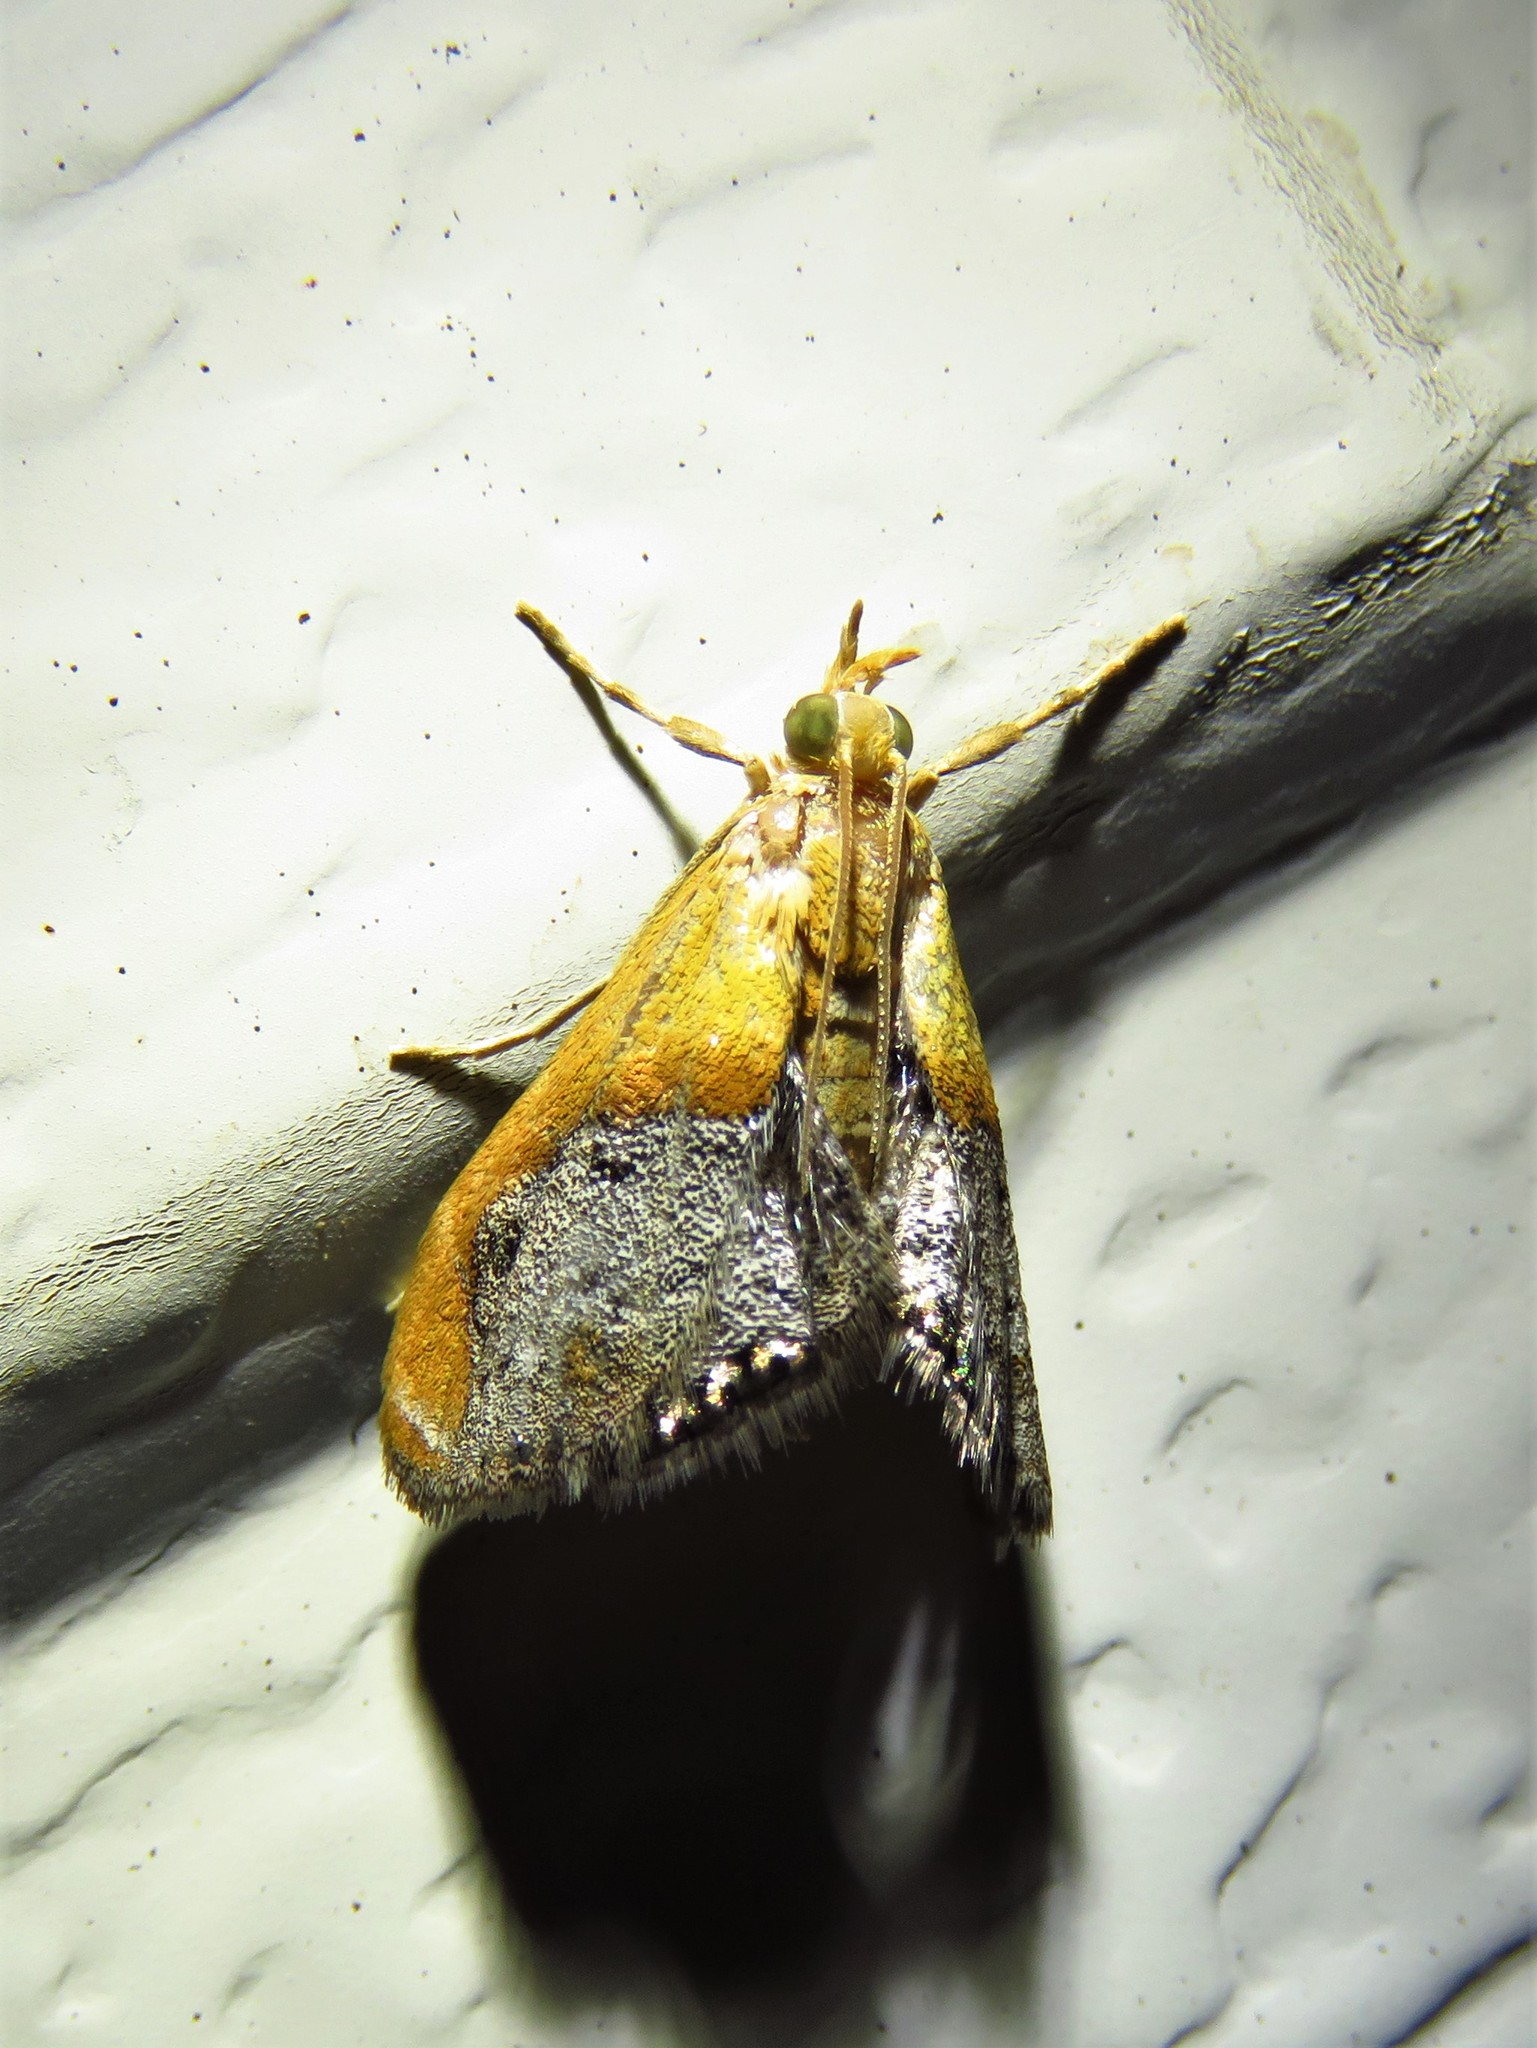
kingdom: Animalia
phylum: Arthropoda
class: Insecta
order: Lepidoptera
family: Crambidae
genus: Chalcoela
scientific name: Chalcoela iphitalis
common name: Sooty-winged chalcoela moth
